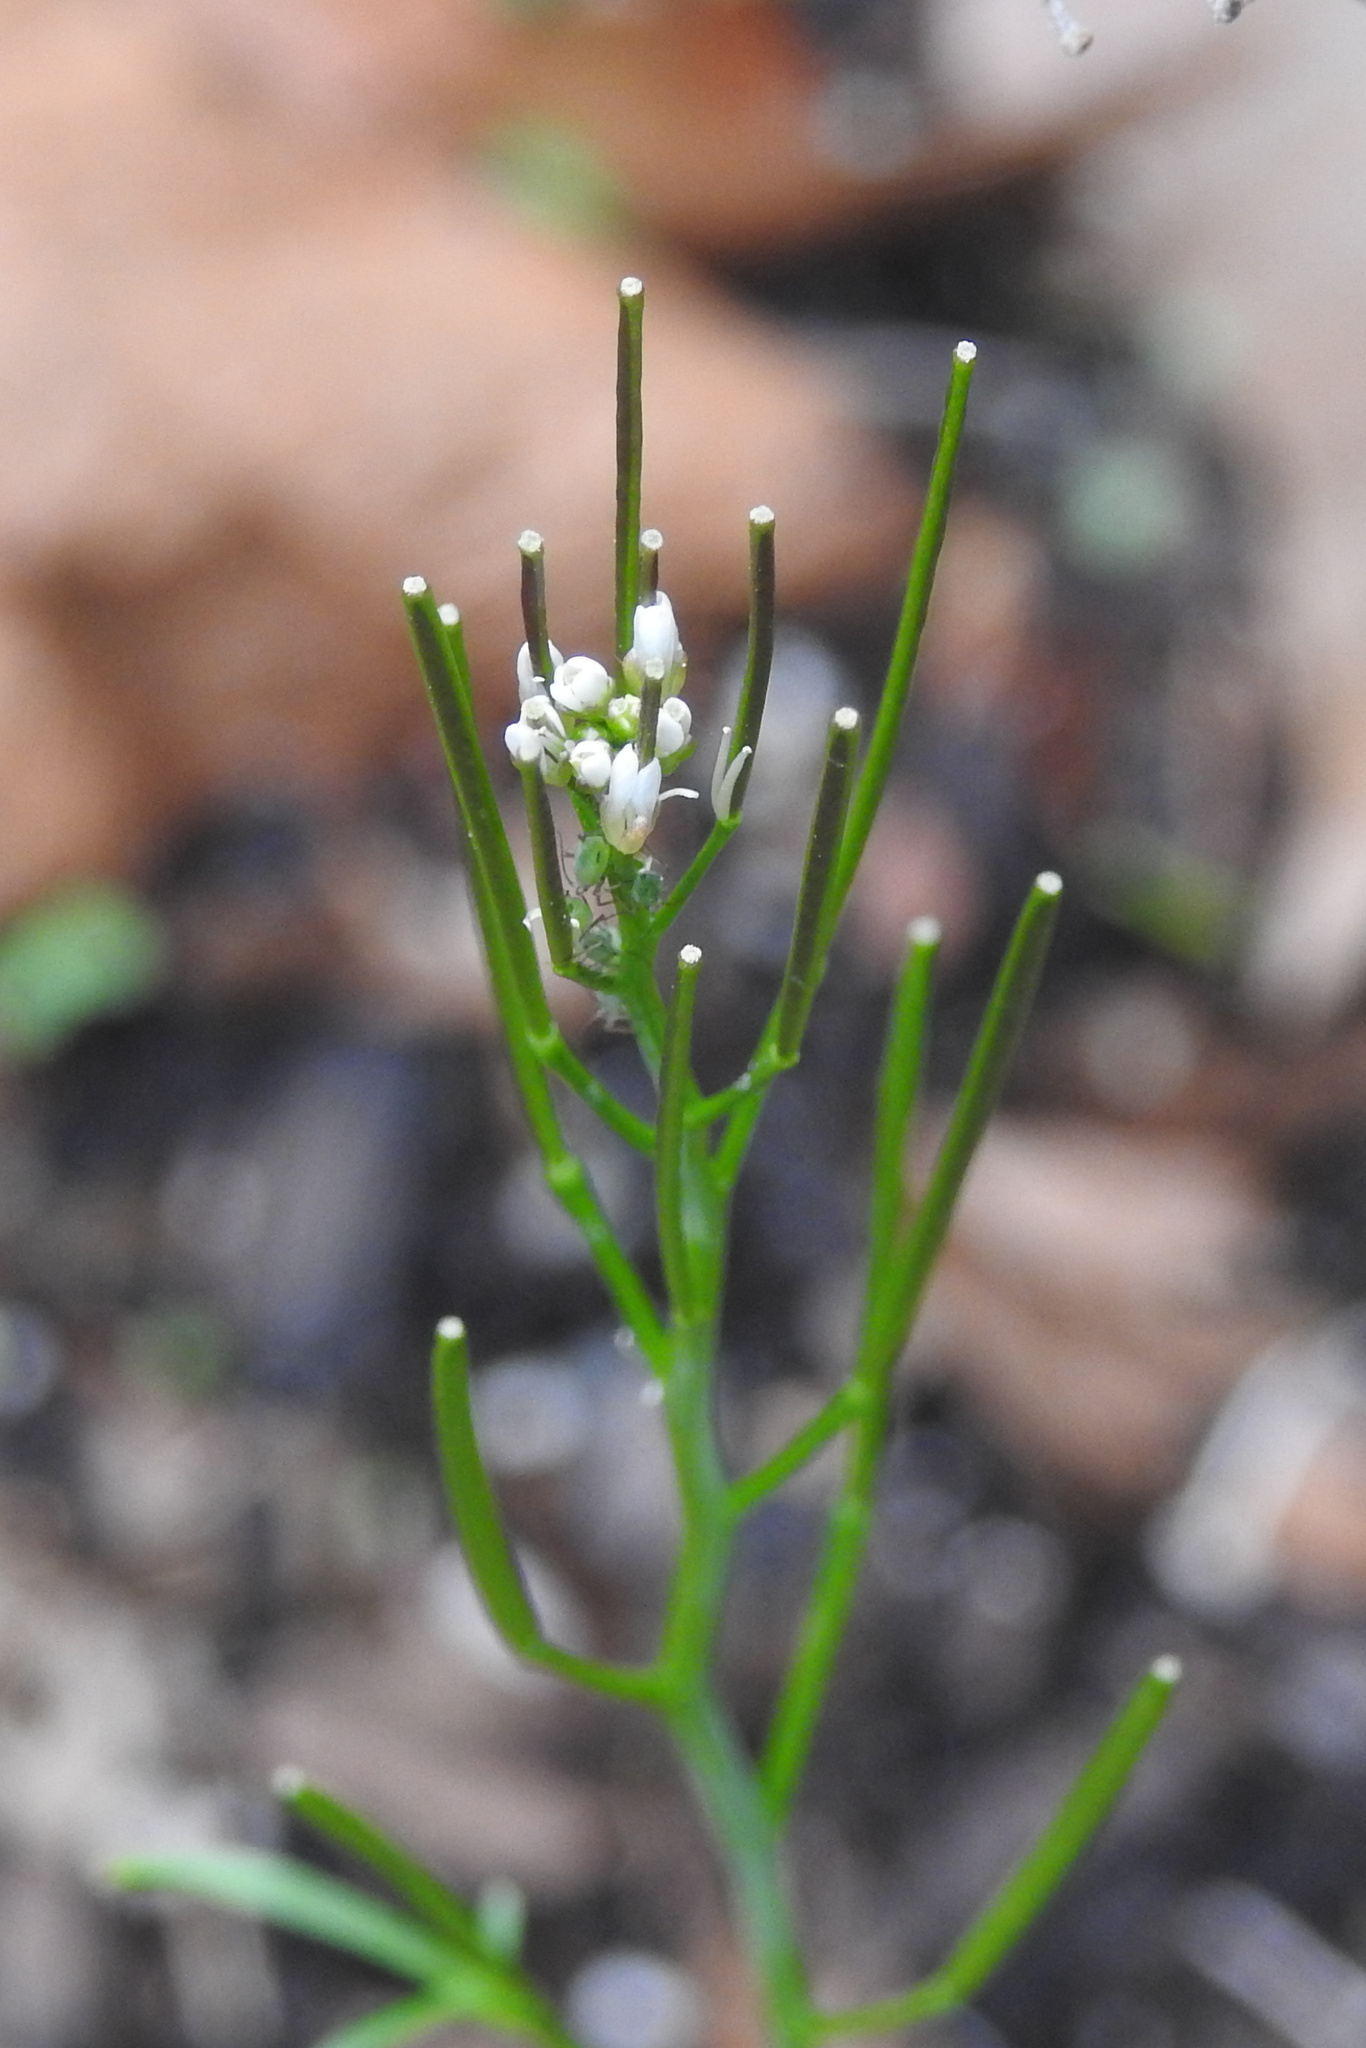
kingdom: Plantae
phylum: Tracheophyta
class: Magnoliopsida
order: Brassicales
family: Brassicaceae
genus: Cardamine
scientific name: Cardamine hirsuta
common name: Hairy bittercress
